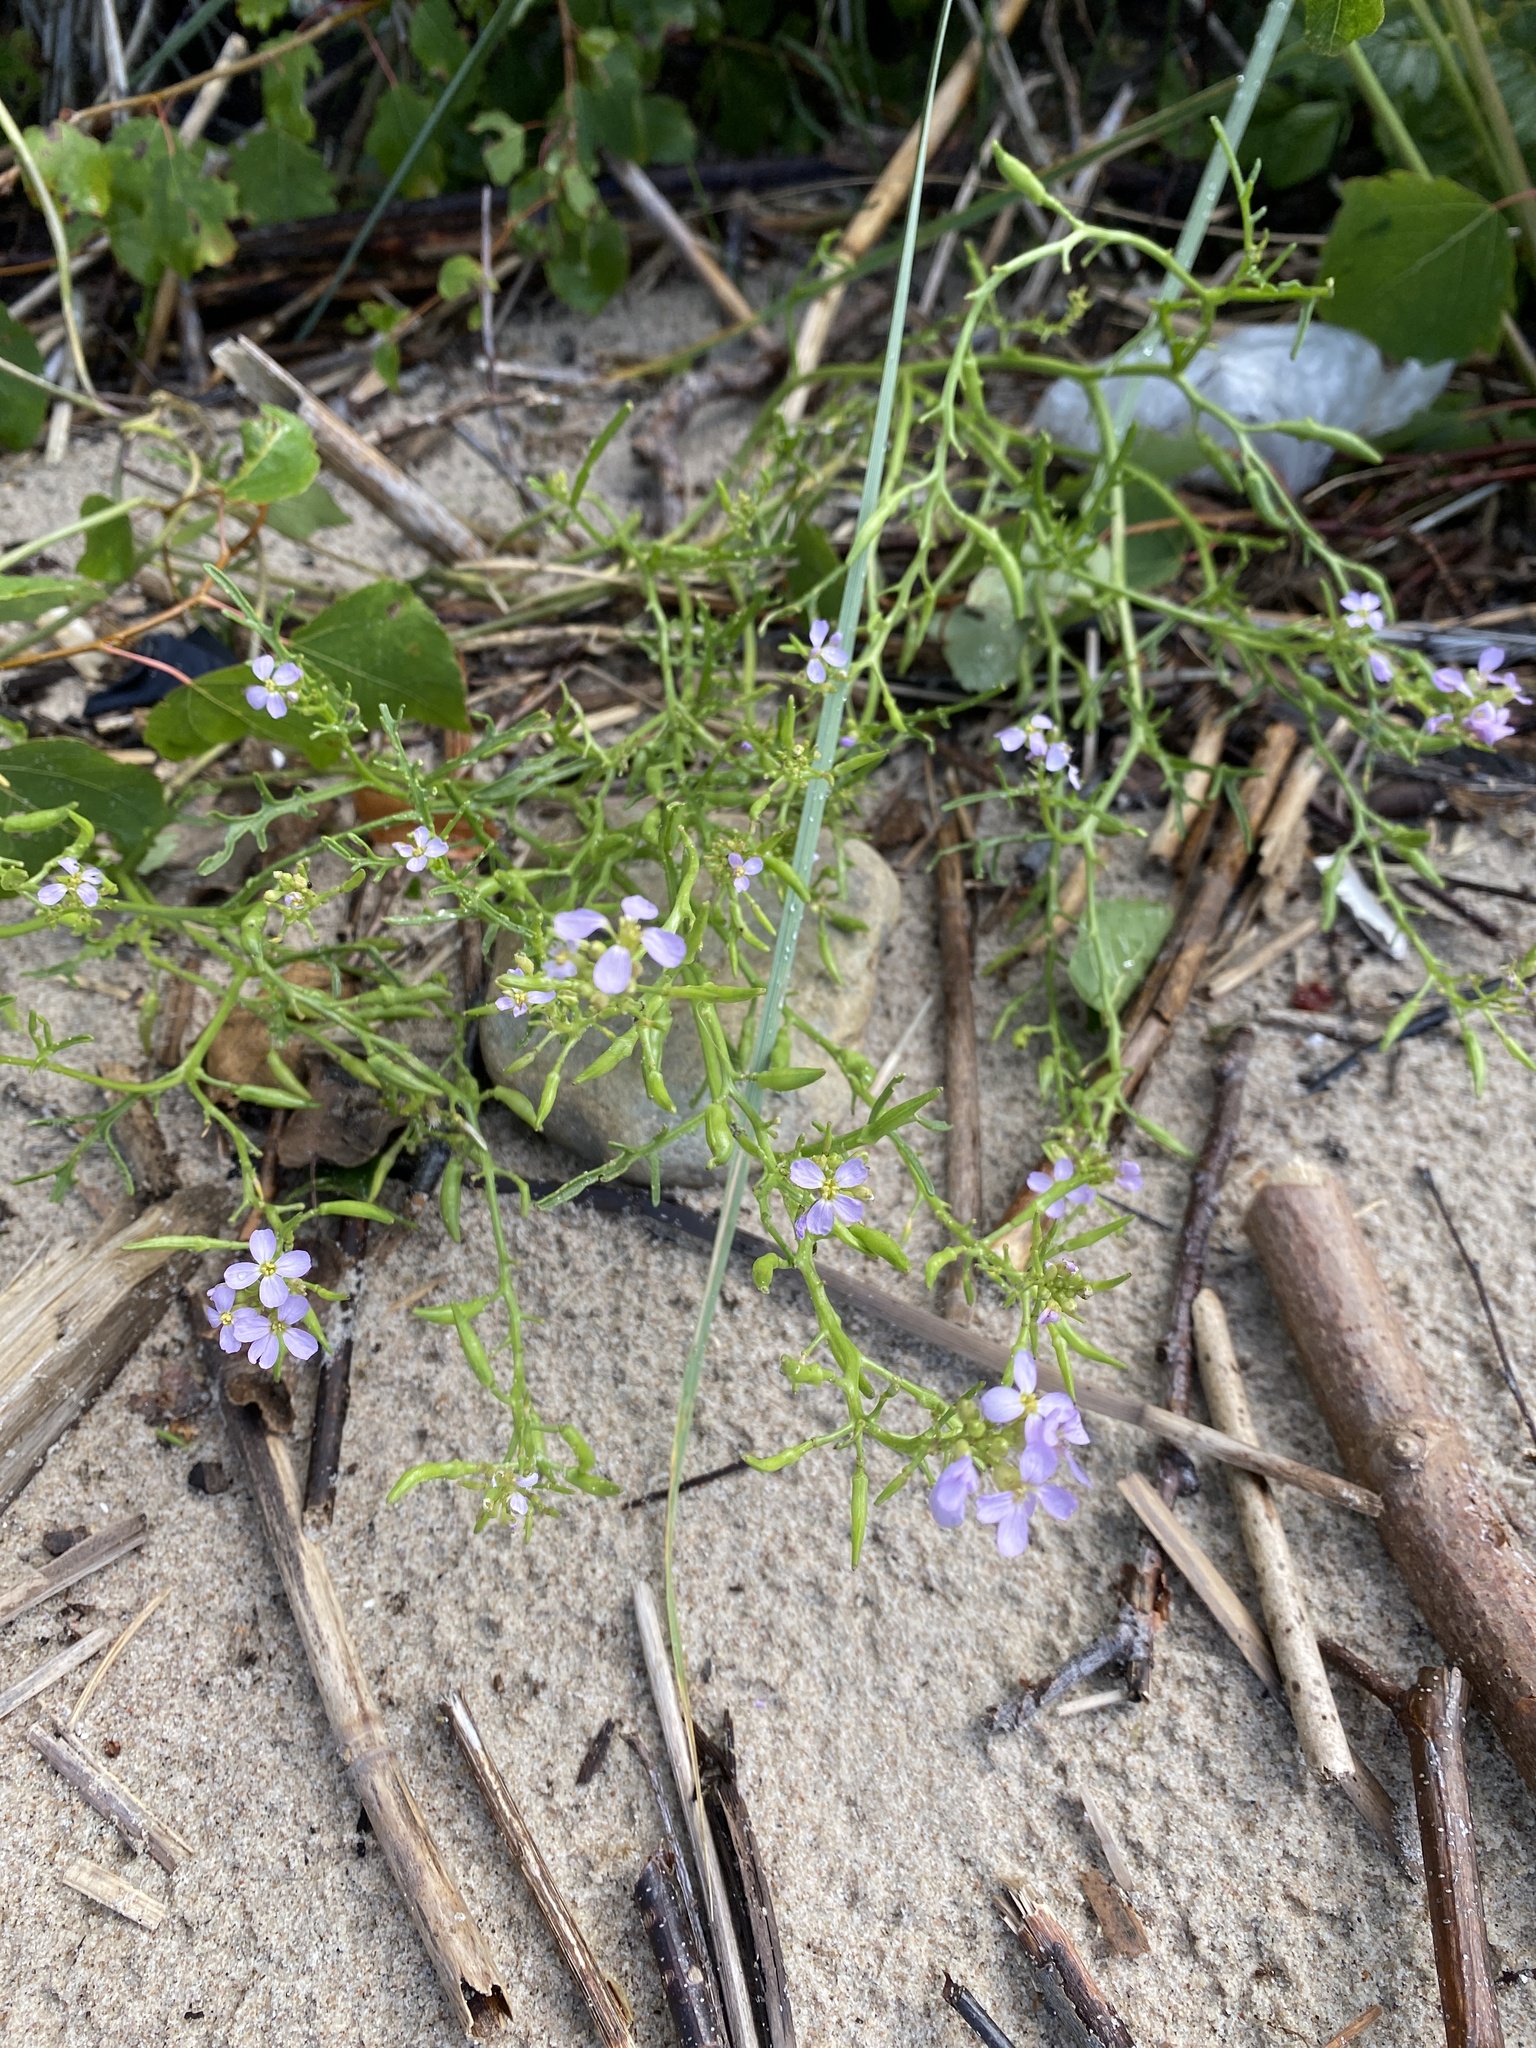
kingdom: Plantae
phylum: Tracheophyta
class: Magnoliopsida
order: Brassicales
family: Brassicaceae
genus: Cakile
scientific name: Cakile maritima
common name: Sea rocket
